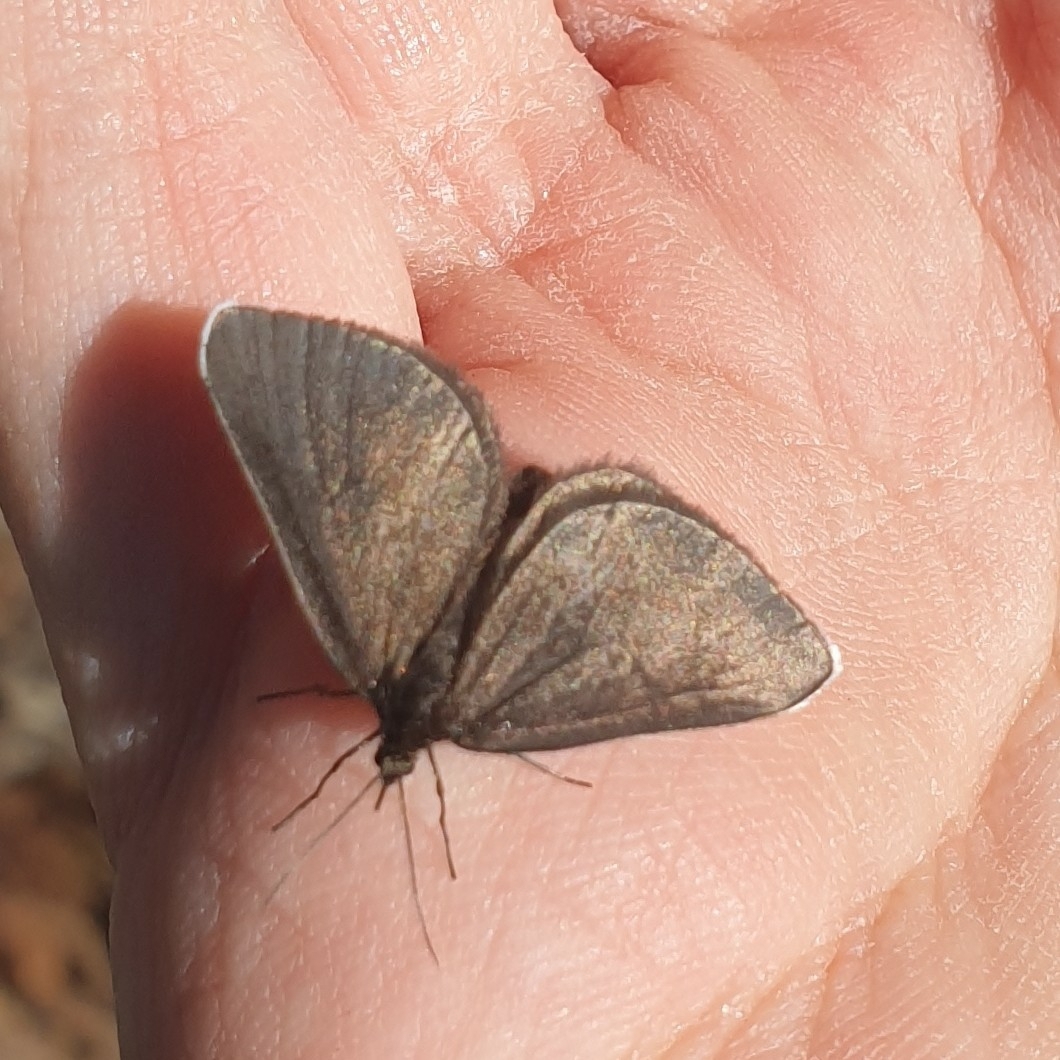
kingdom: Animalia
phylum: Arthropoda
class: Insecta
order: Lepidoptera
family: Geometridae
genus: Odezia
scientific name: Odezia atrata
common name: Chimney sweeper
